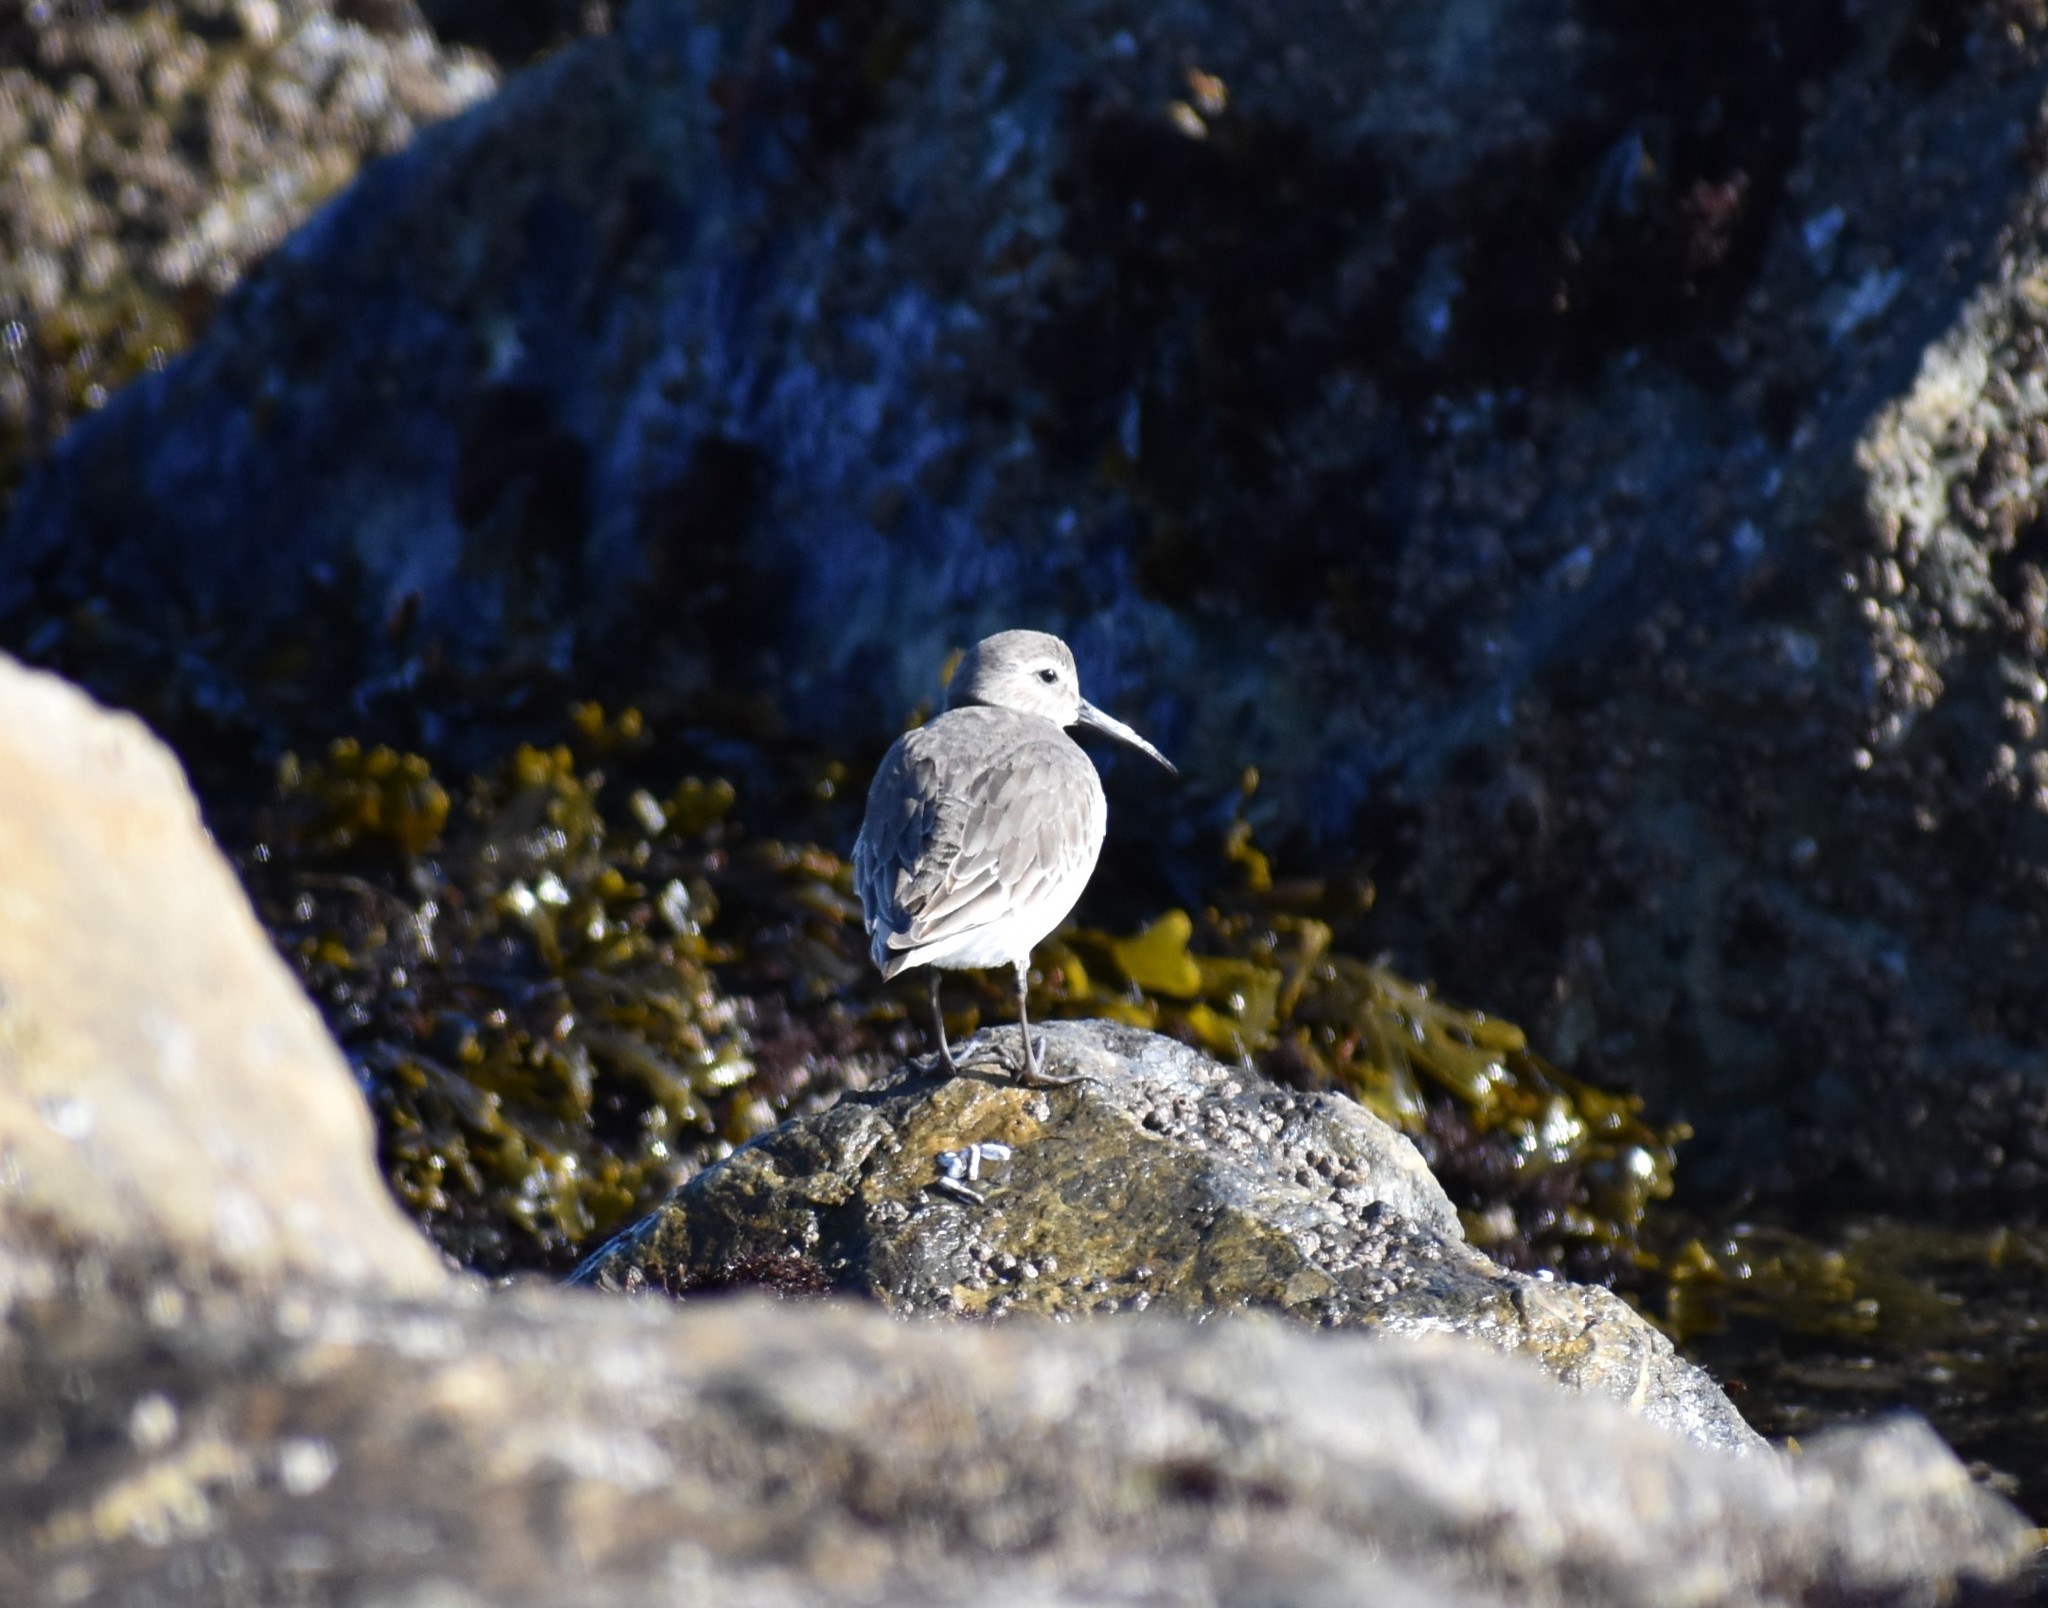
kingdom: Animalia
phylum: Chordata
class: Aves
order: Charadriiformes
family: Scolopacidae
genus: Calidris
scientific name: Calidris alpina
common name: Dunlin
